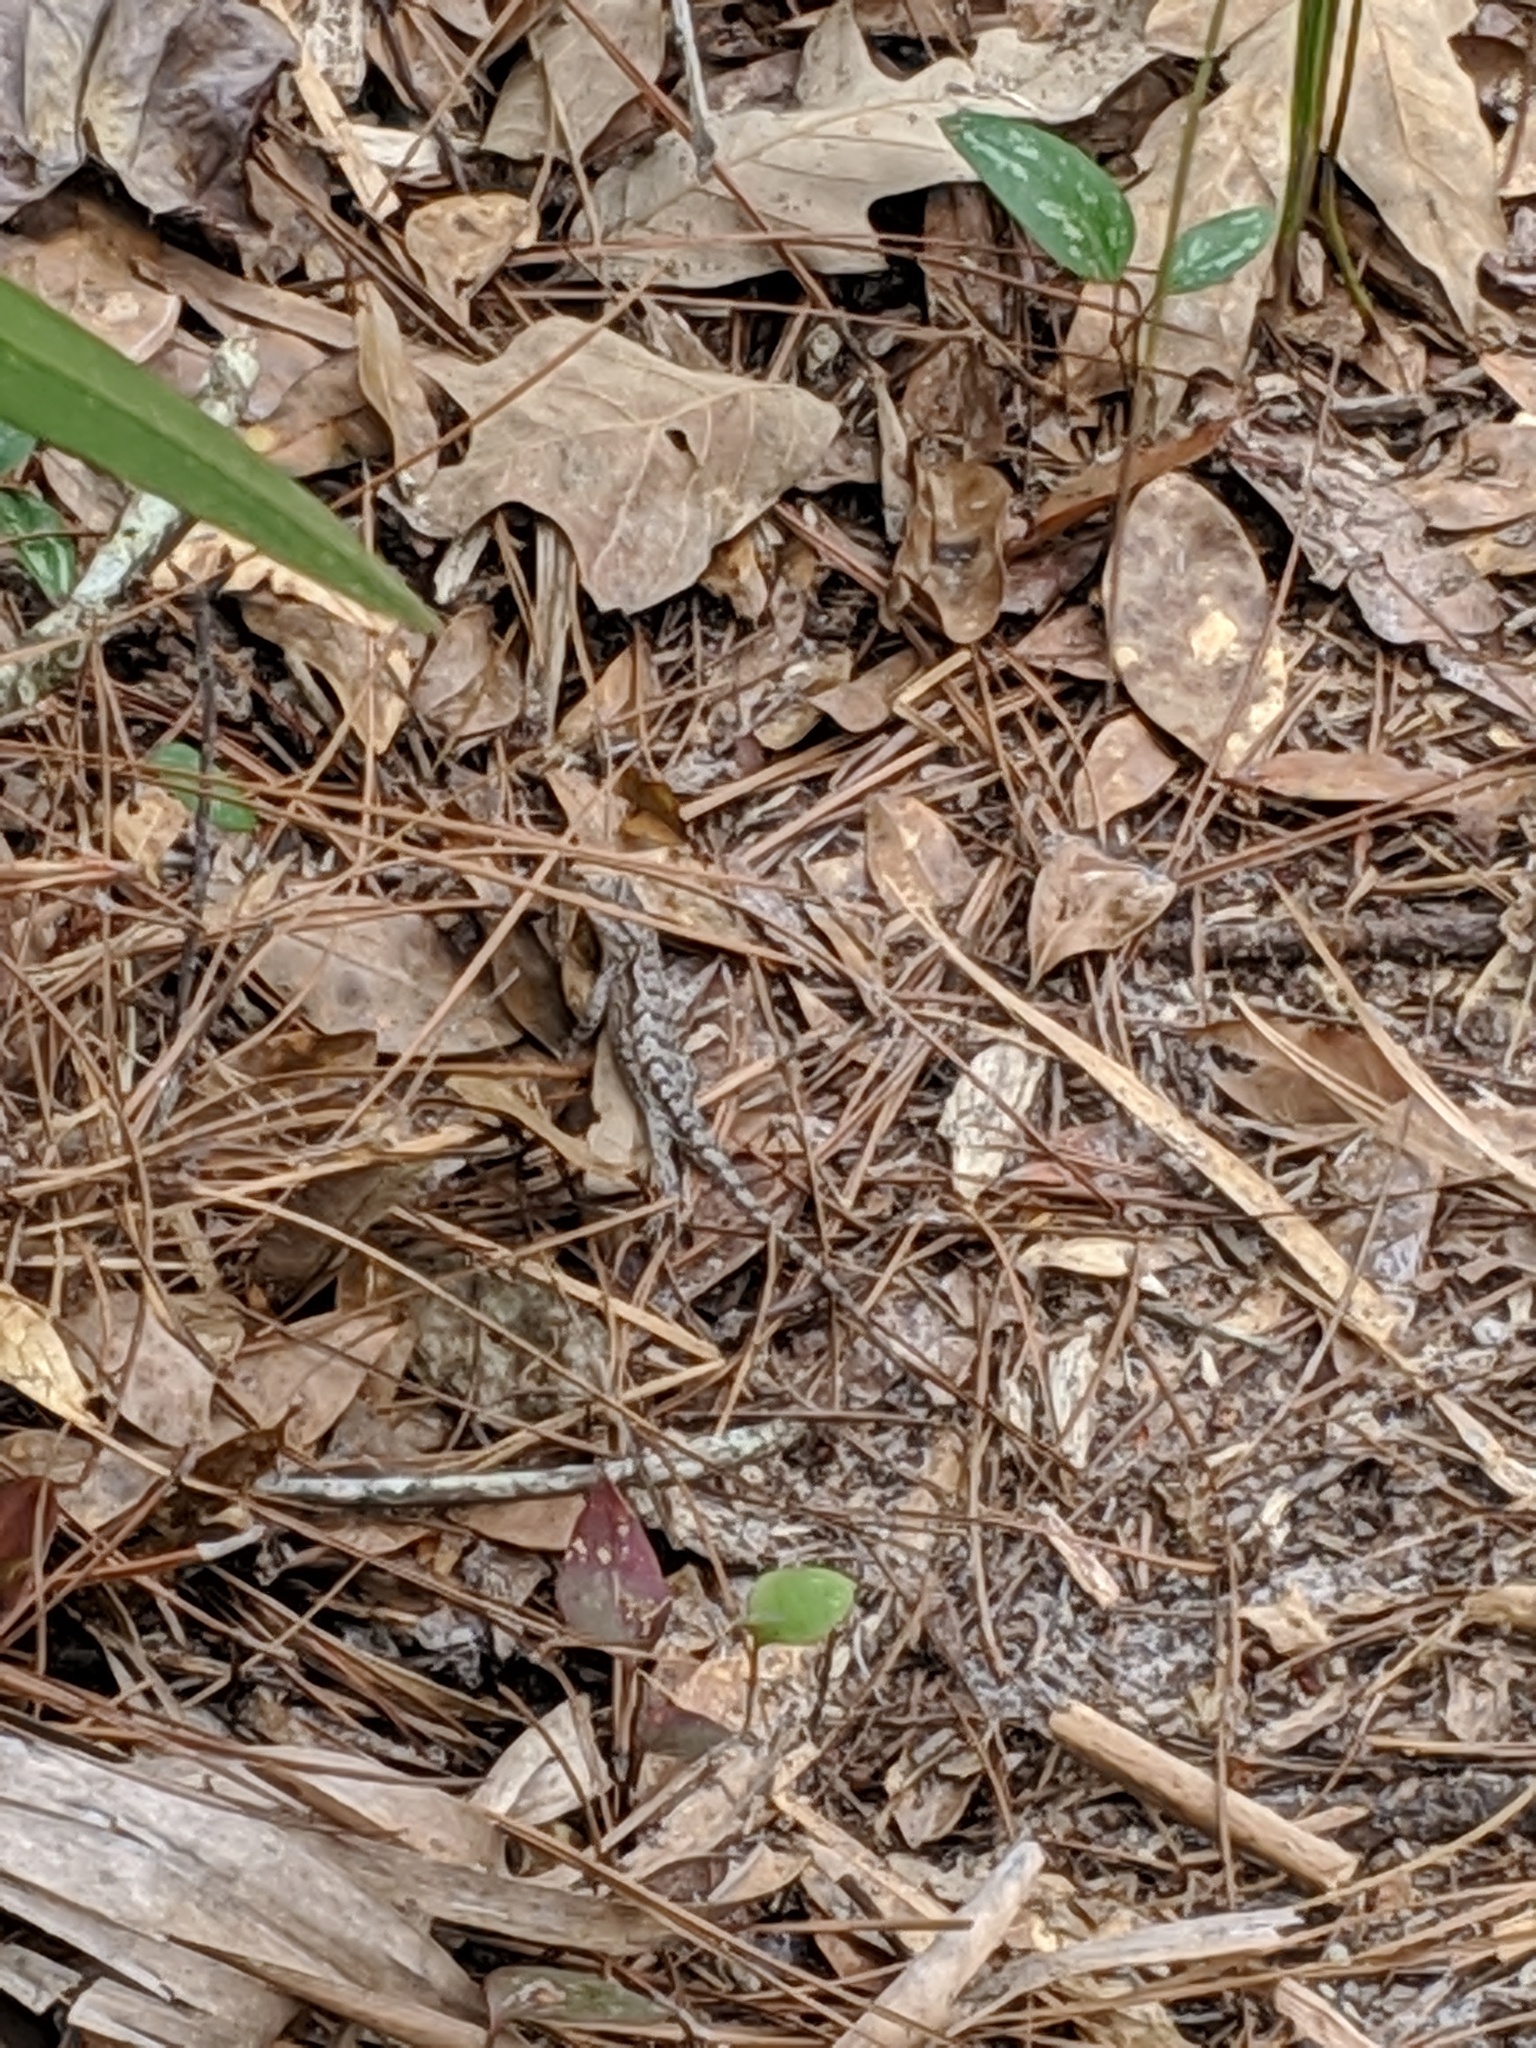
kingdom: Animalia
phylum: Chordata
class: Squamata
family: Phrynosomatidae
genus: Sceloporus
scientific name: Sceloporus undulatus
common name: Eastern fence lizard
